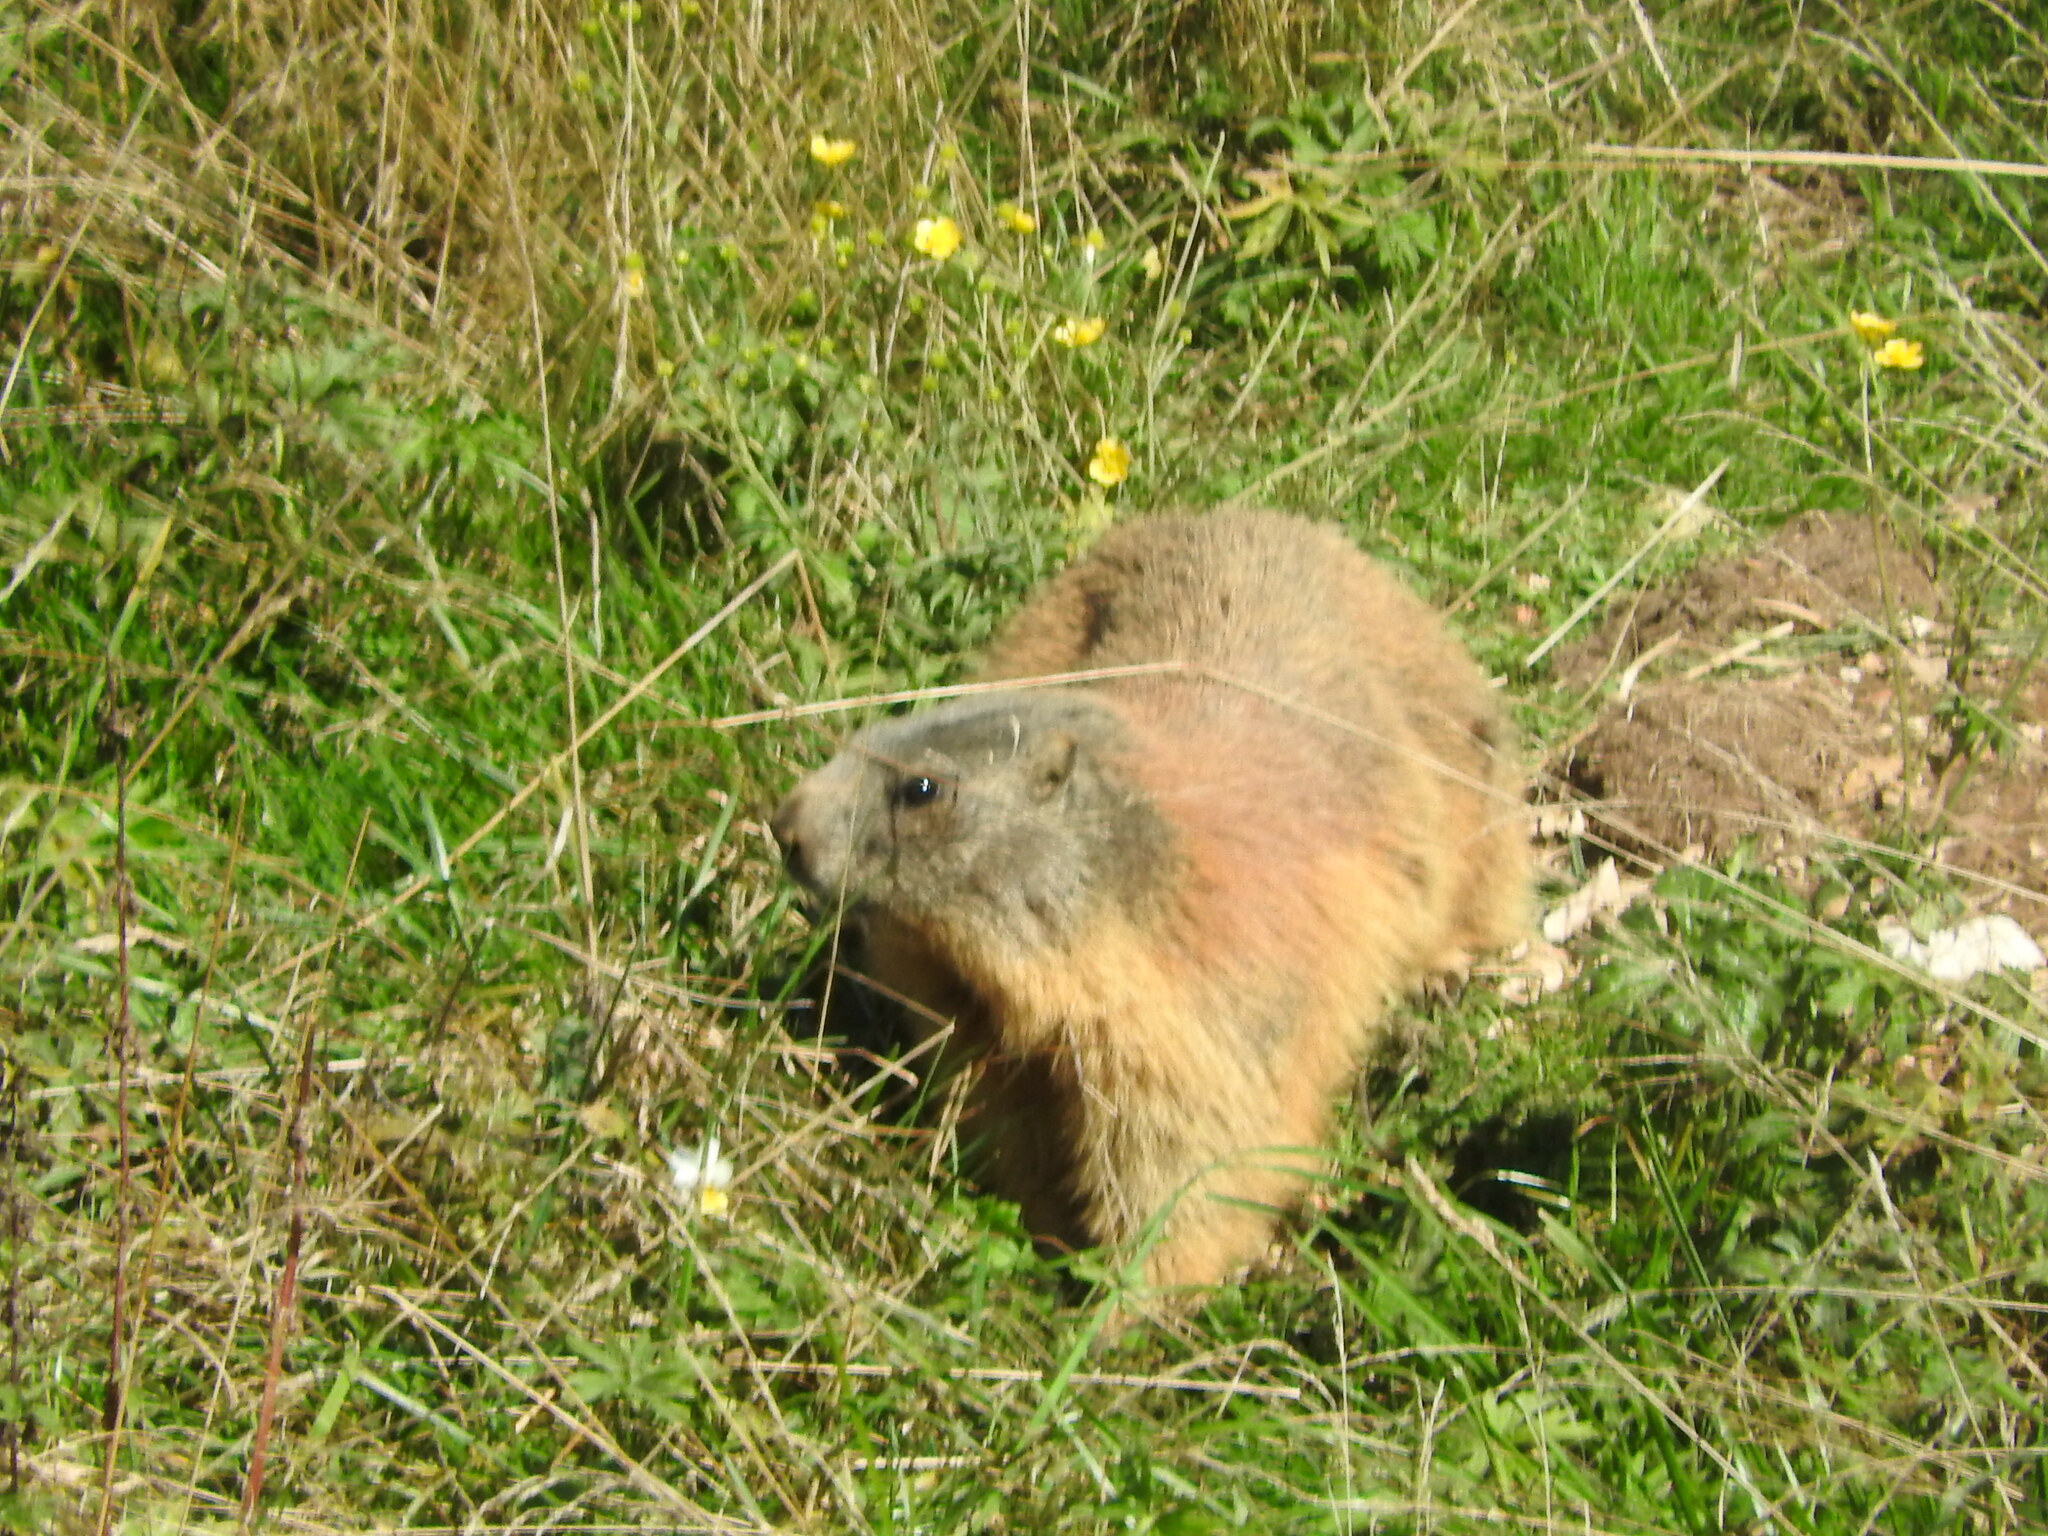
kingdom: Animalia
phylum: Chordata
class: Mammalia
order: Rodentia
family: Sciuridae
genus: Marmota
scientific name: Marmota marmota
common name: Alpine marmot
